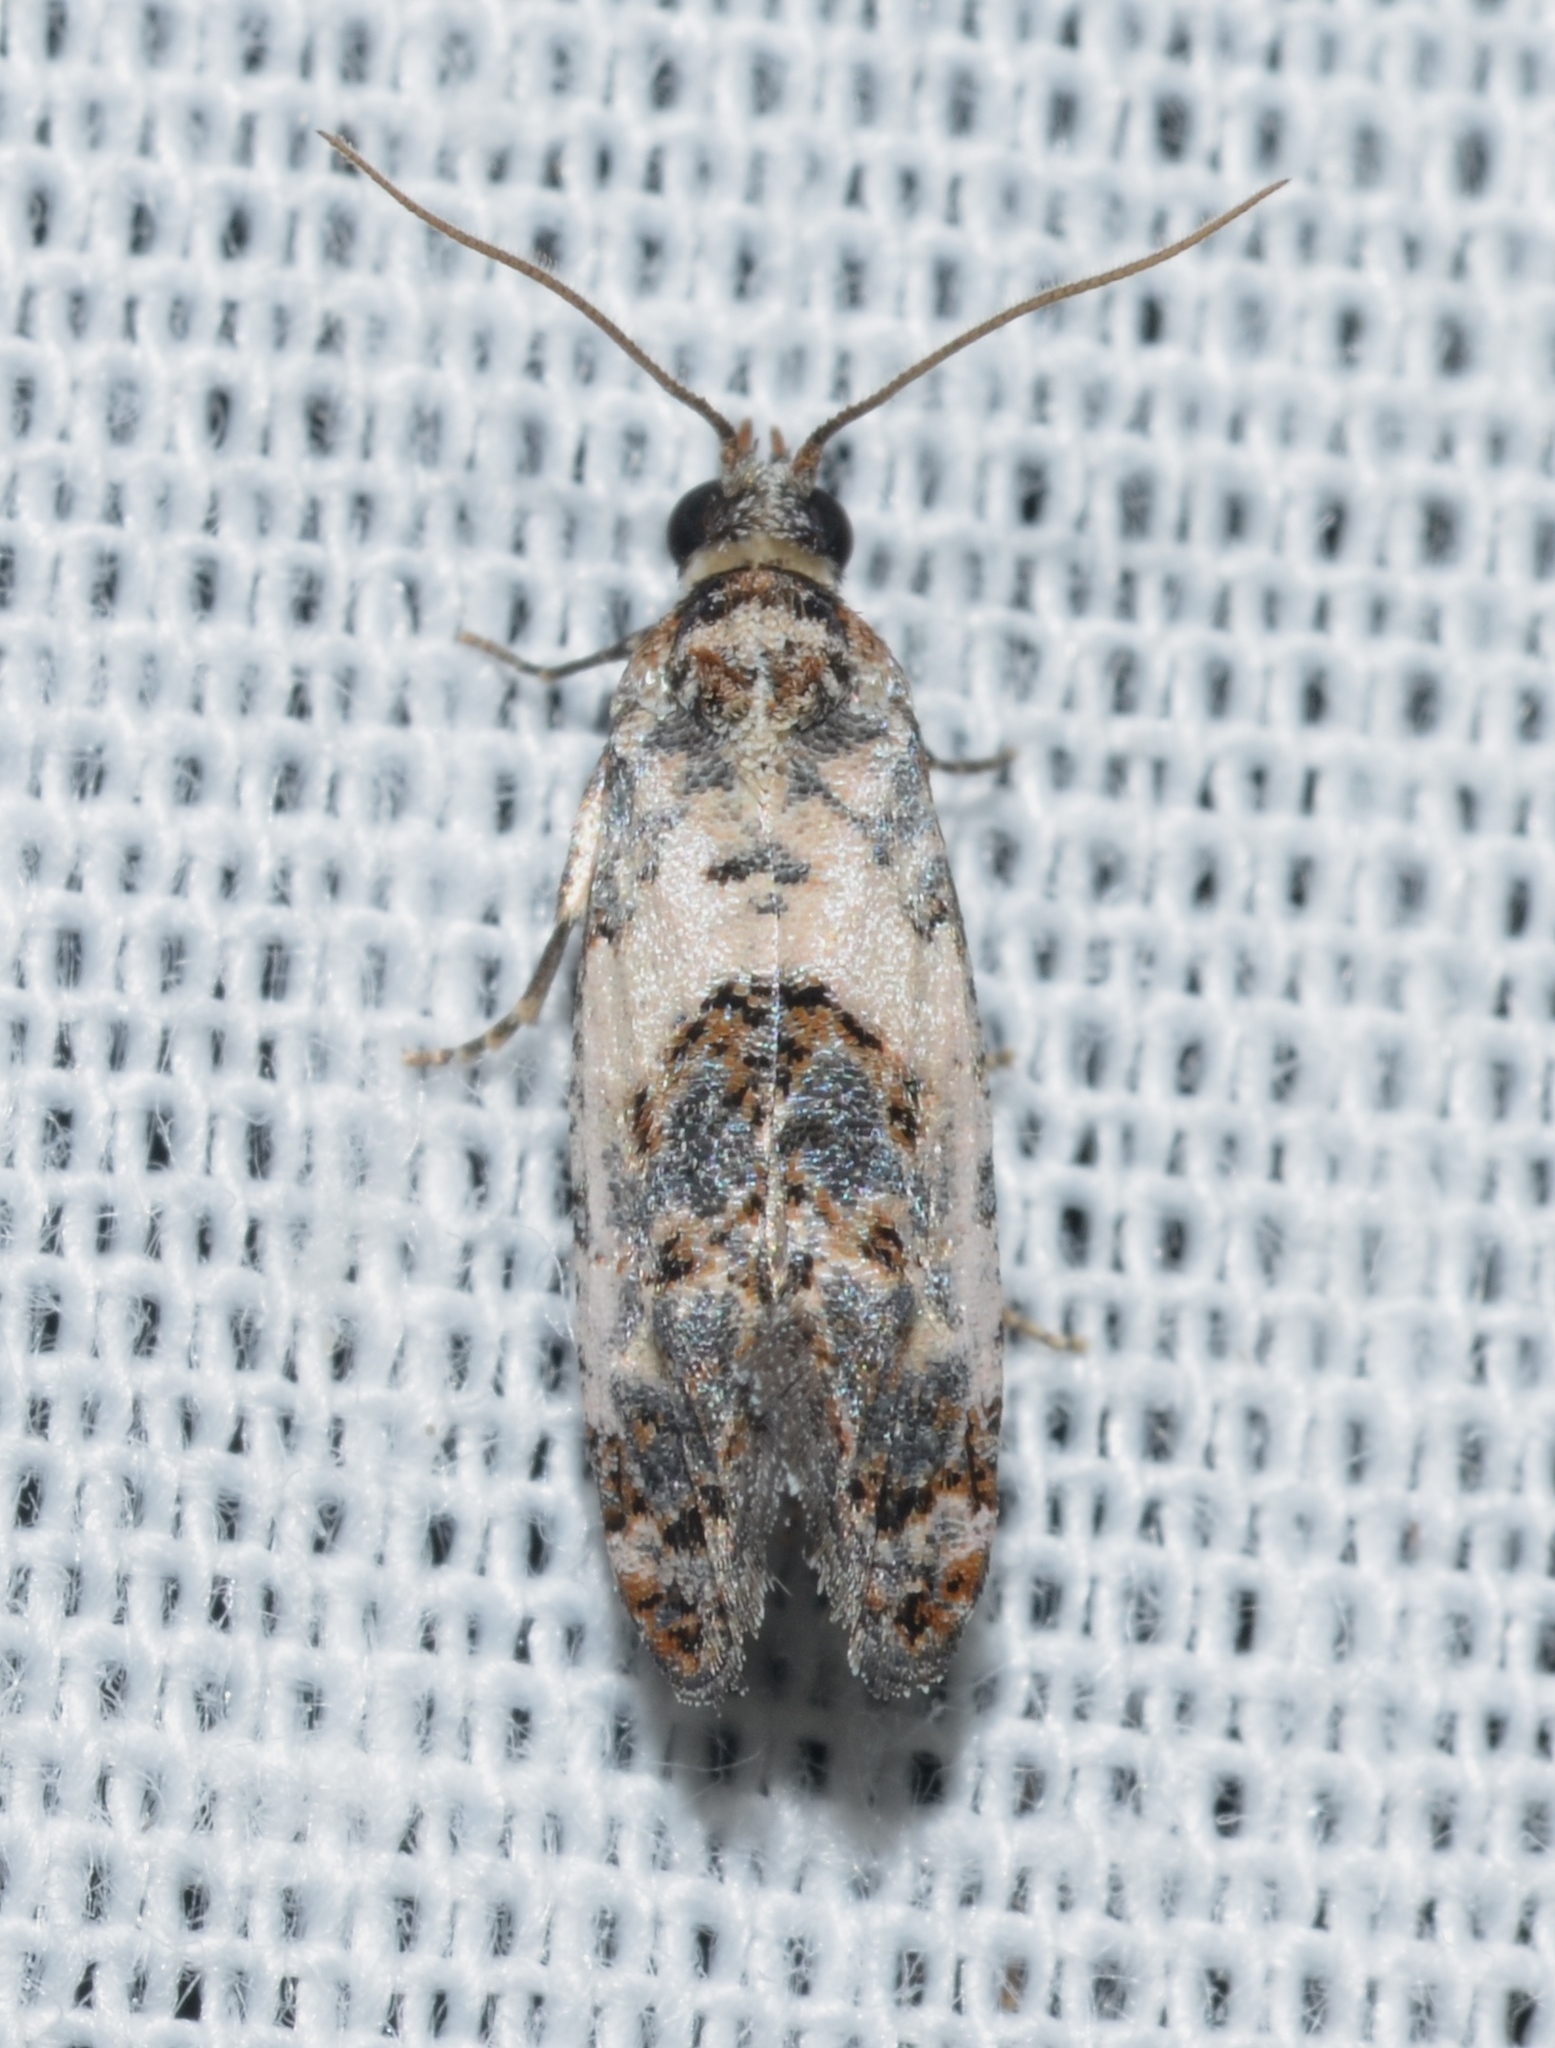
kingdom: Animalia
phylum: Arthropoda
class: Insecta
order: Lepidoptera
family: Tortricidae
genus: Rudenia
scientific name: Rudenia leguminana
